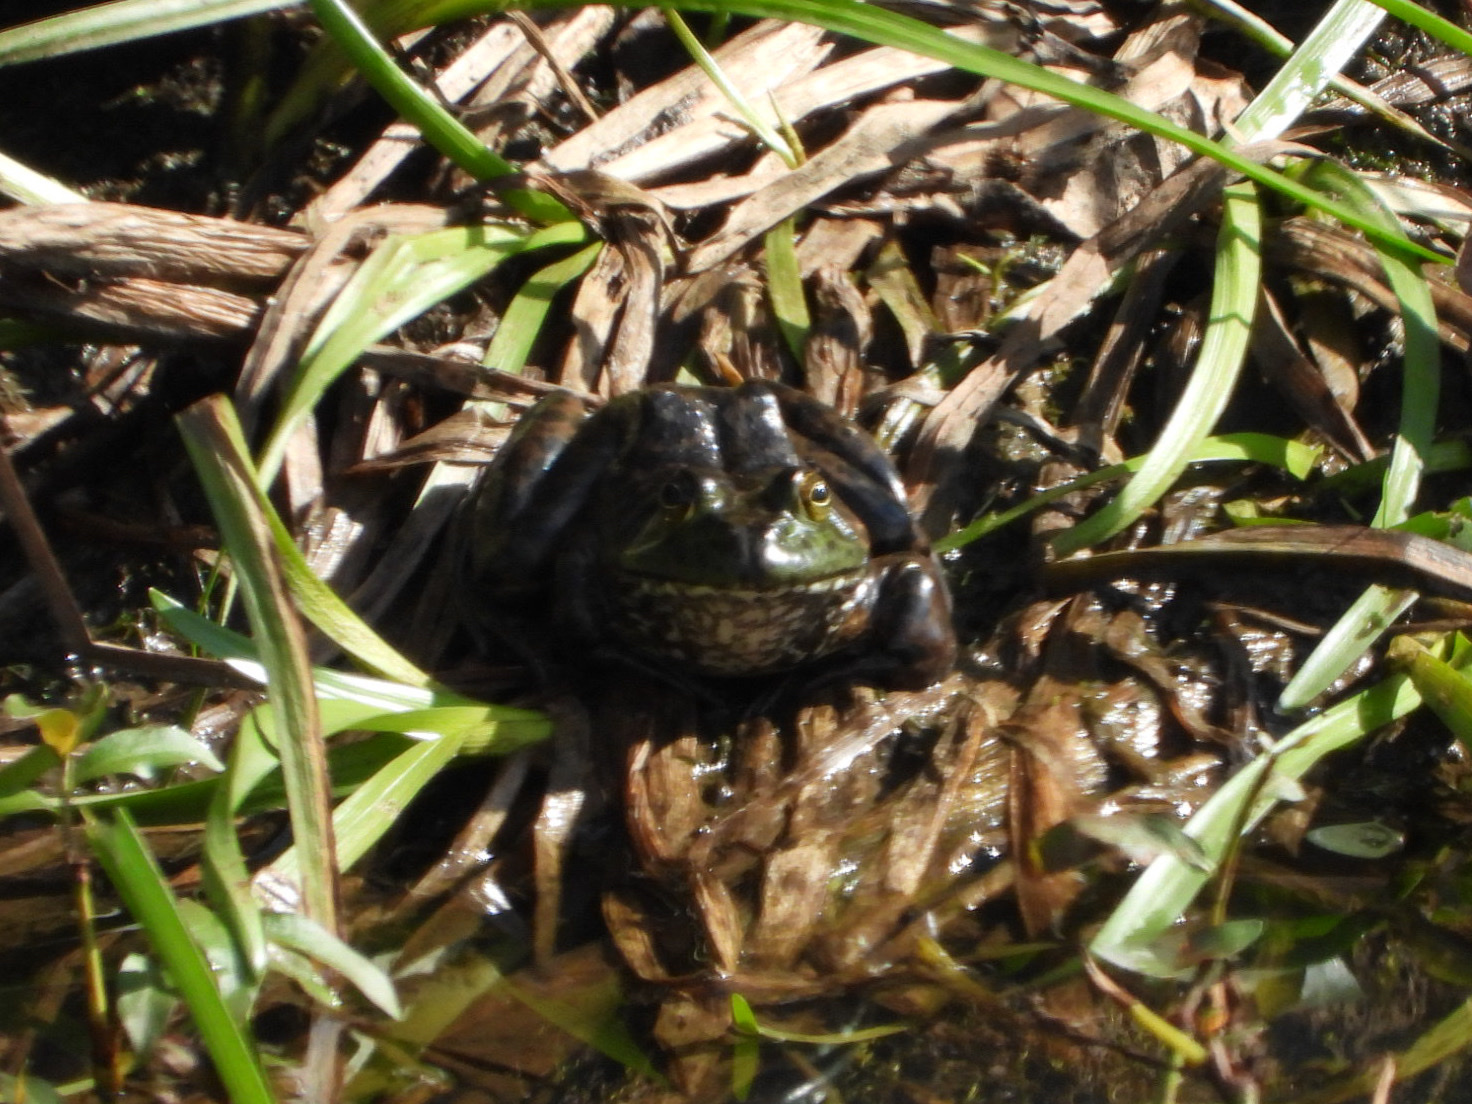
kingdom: Animalia
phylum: Chordata
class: Amphibia
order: Anura
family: Ranidae
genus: Lithobates
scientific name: Lithobates catesbeianus
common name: American bullfrog
